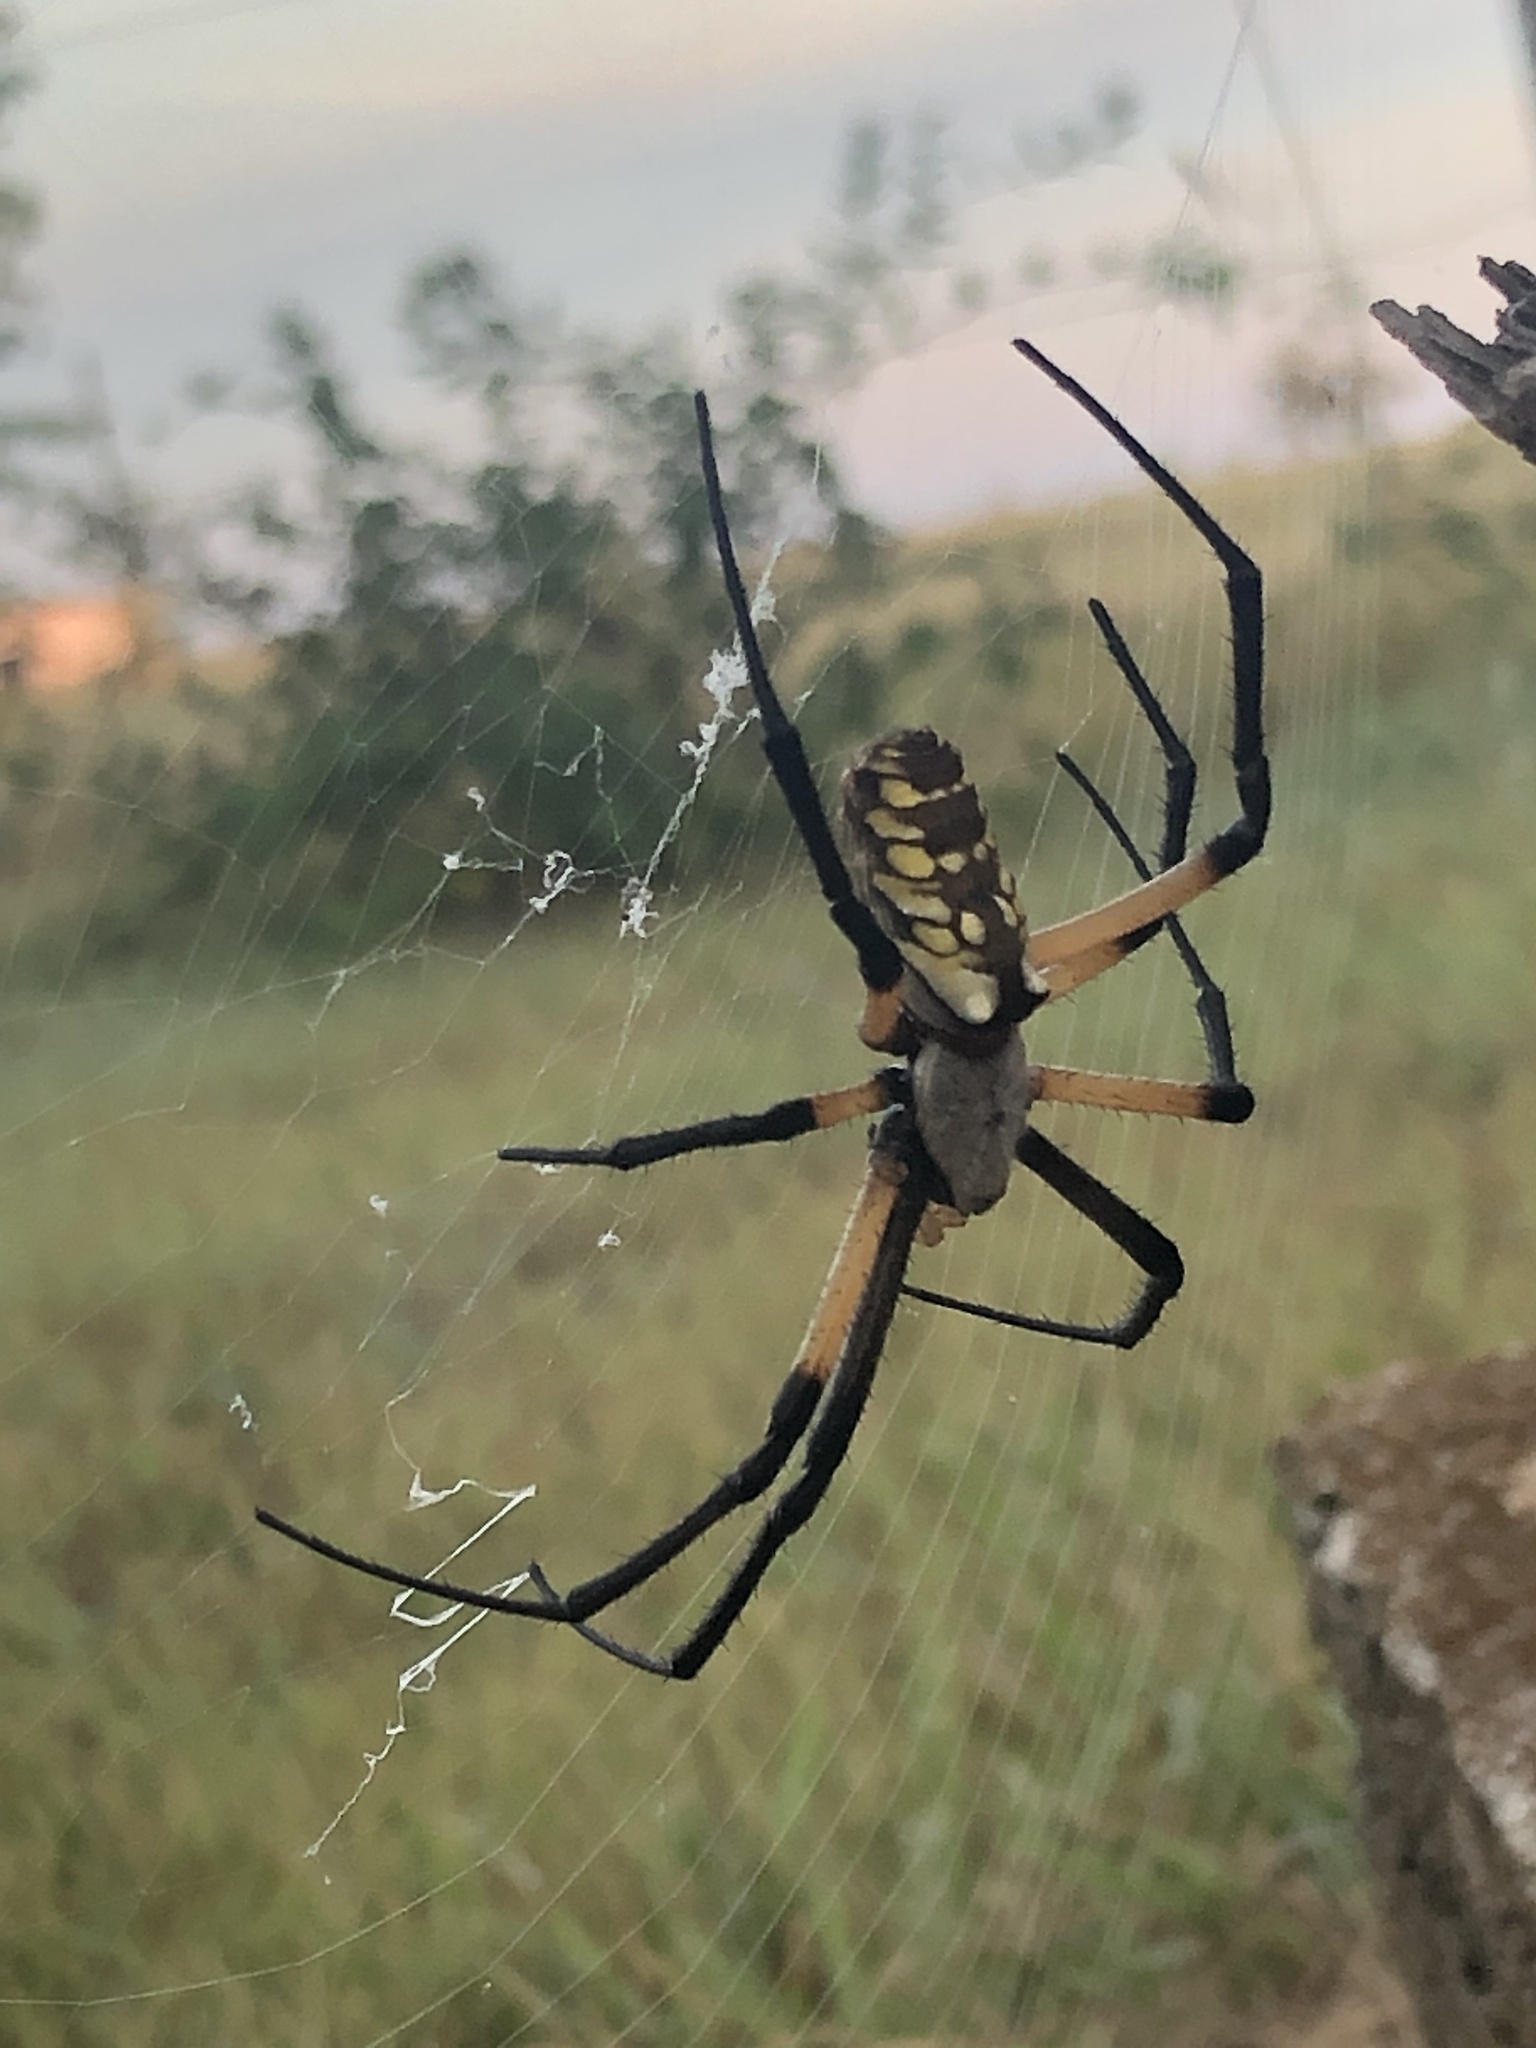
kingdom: Animalia
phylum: Arthropoda
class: Arachnida
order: Araneae
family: Araneidae
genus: Argiope
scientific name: Argiope aurantia
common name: Orb weavers
